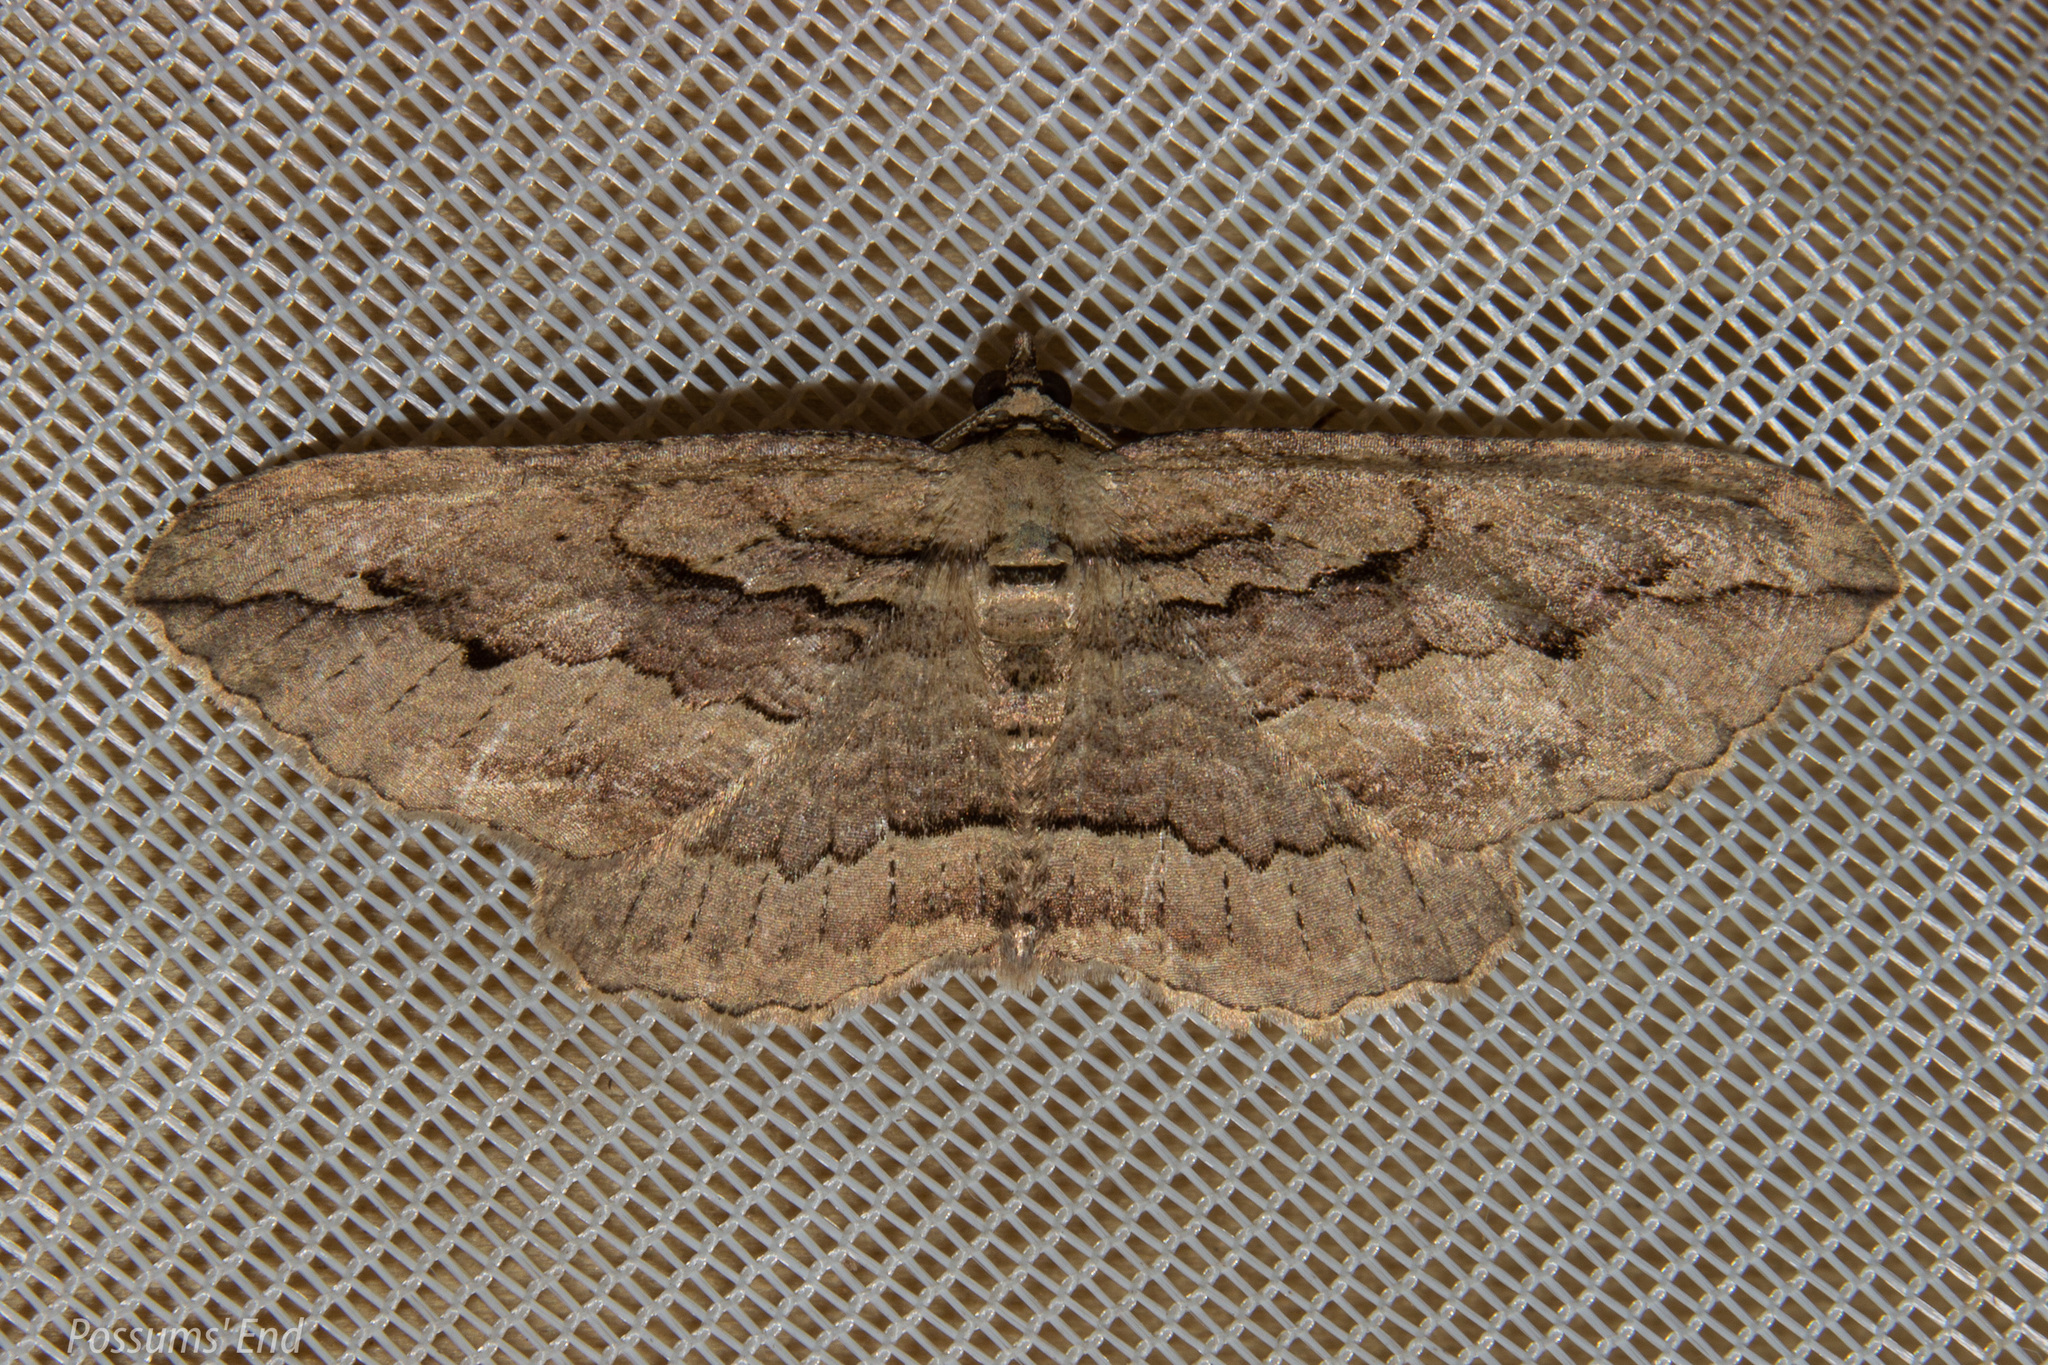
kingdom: Animalia
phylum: Arthropoda
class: Insecta
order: Lepidoptera
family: Geometridae
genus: Austrocidaria
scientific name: Austrocidaria gobiata
